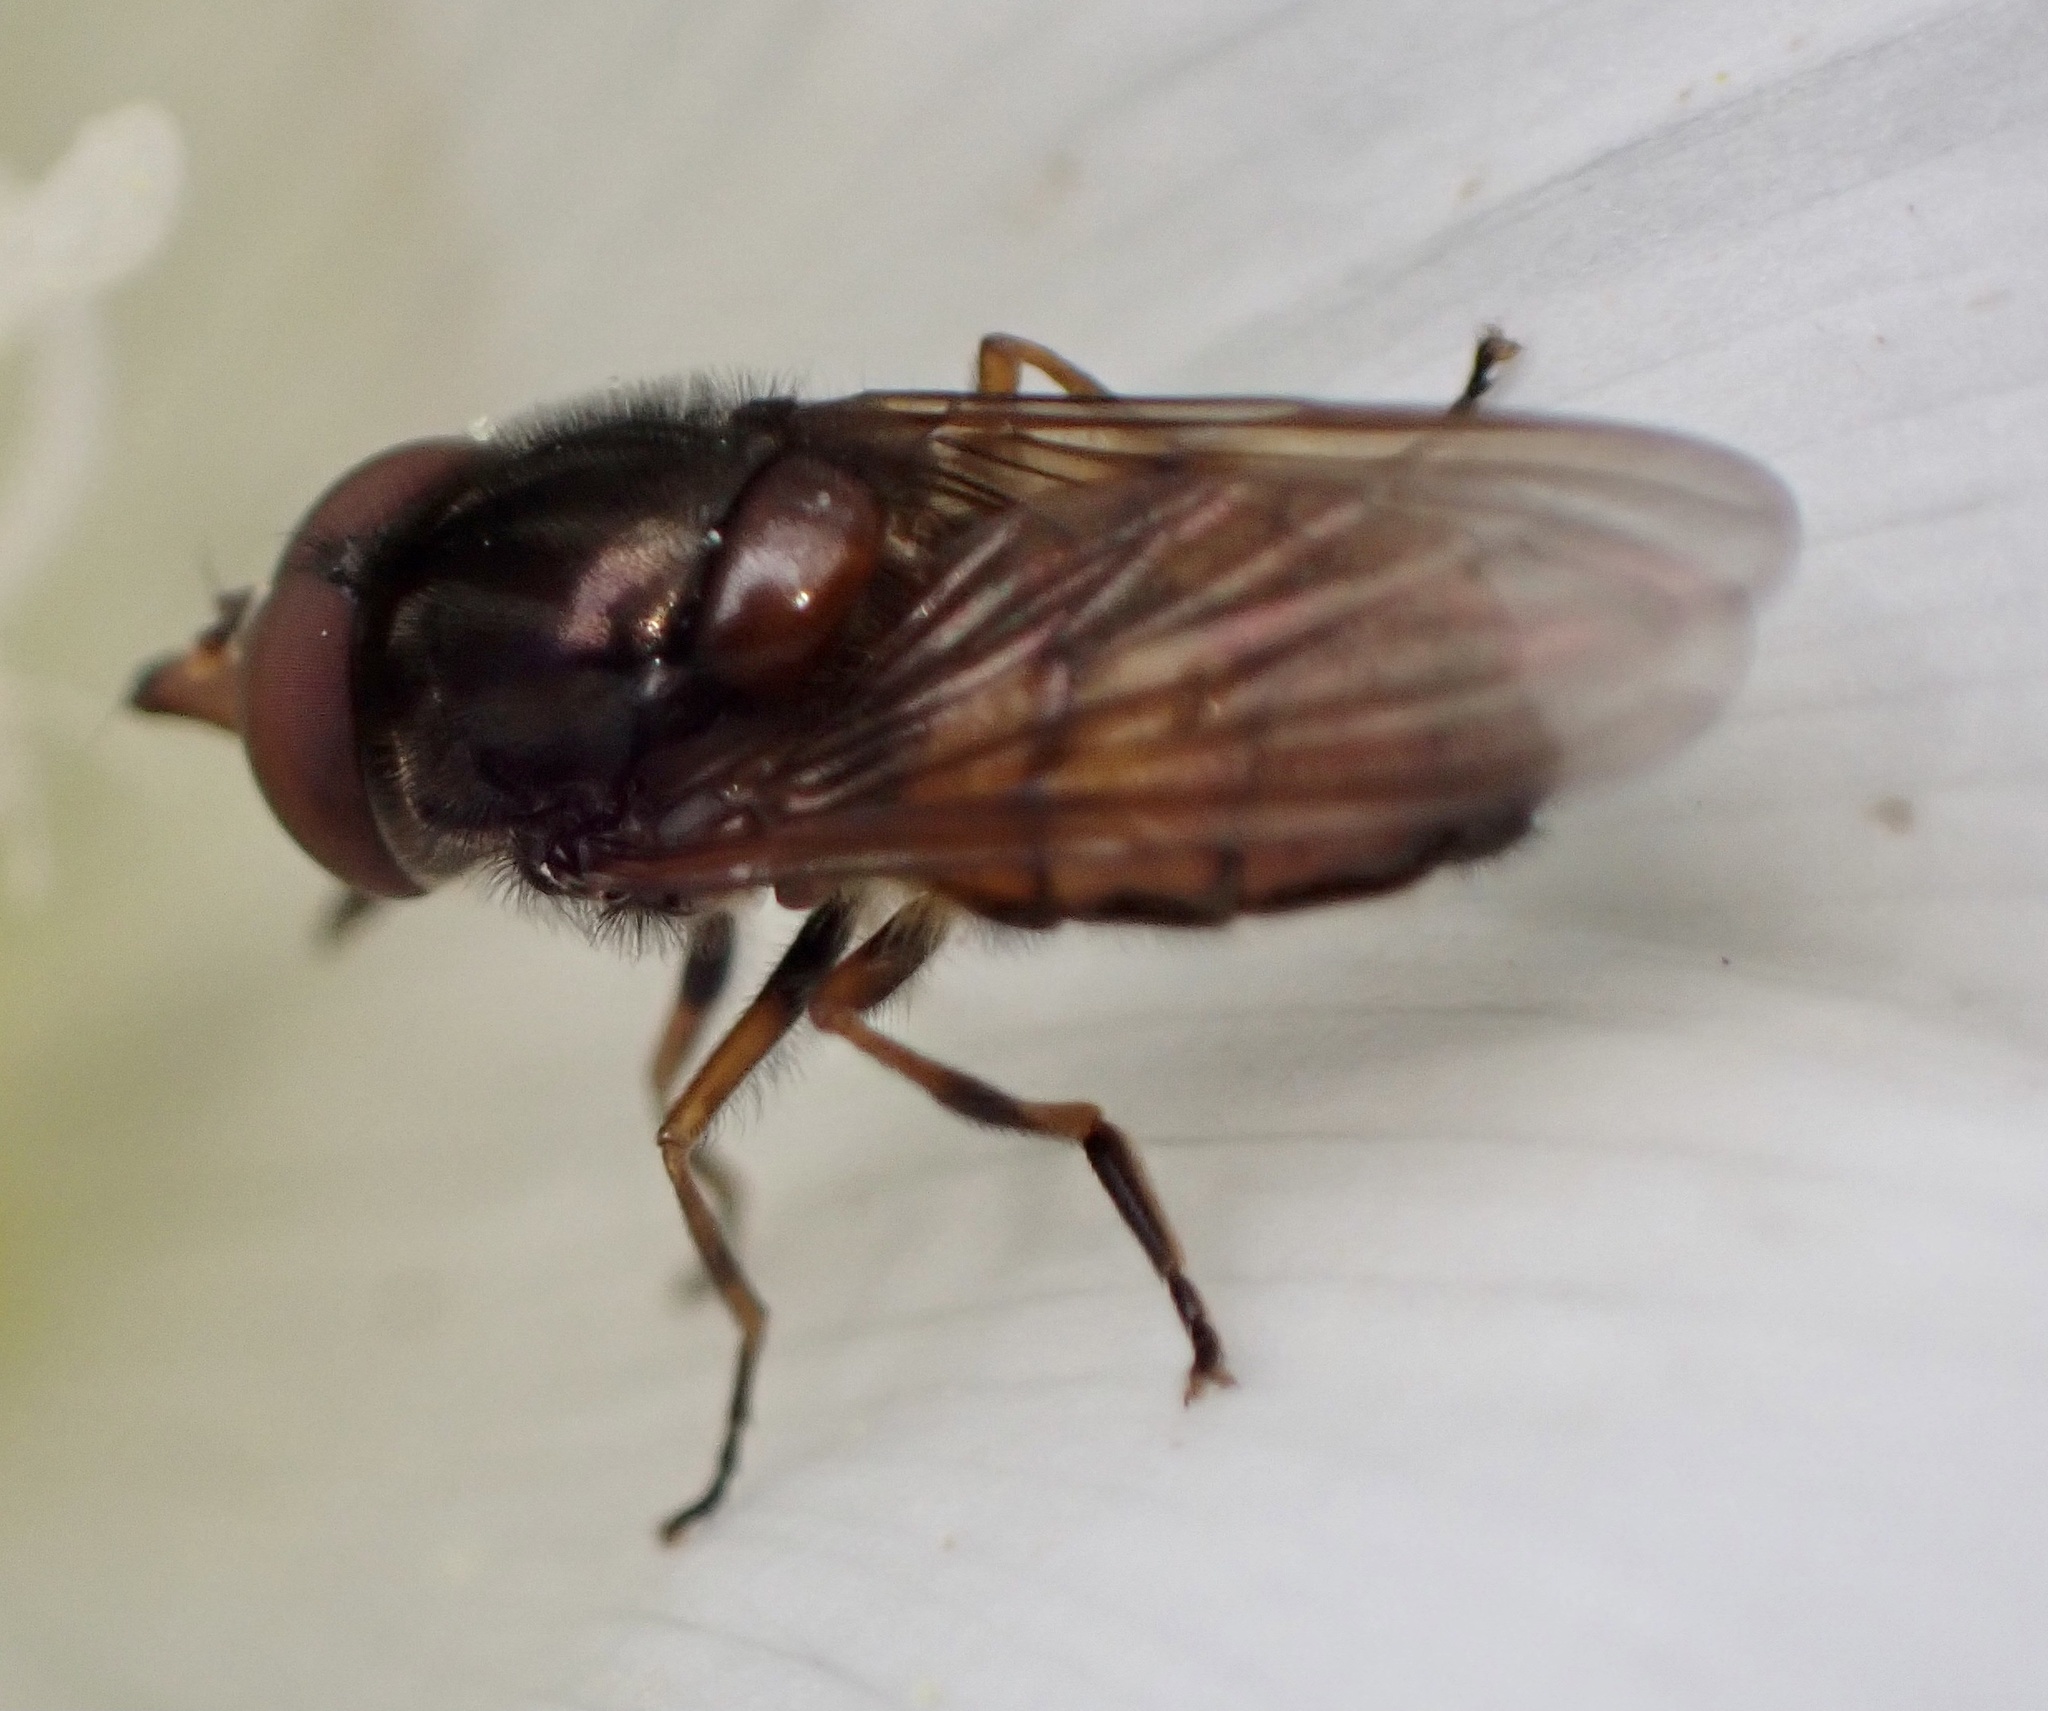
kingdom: Animalia
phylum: Arthropoda
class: Insecta
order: Diptera
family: Syrphidae
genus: Rhingia
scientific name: Rhingia campestris
